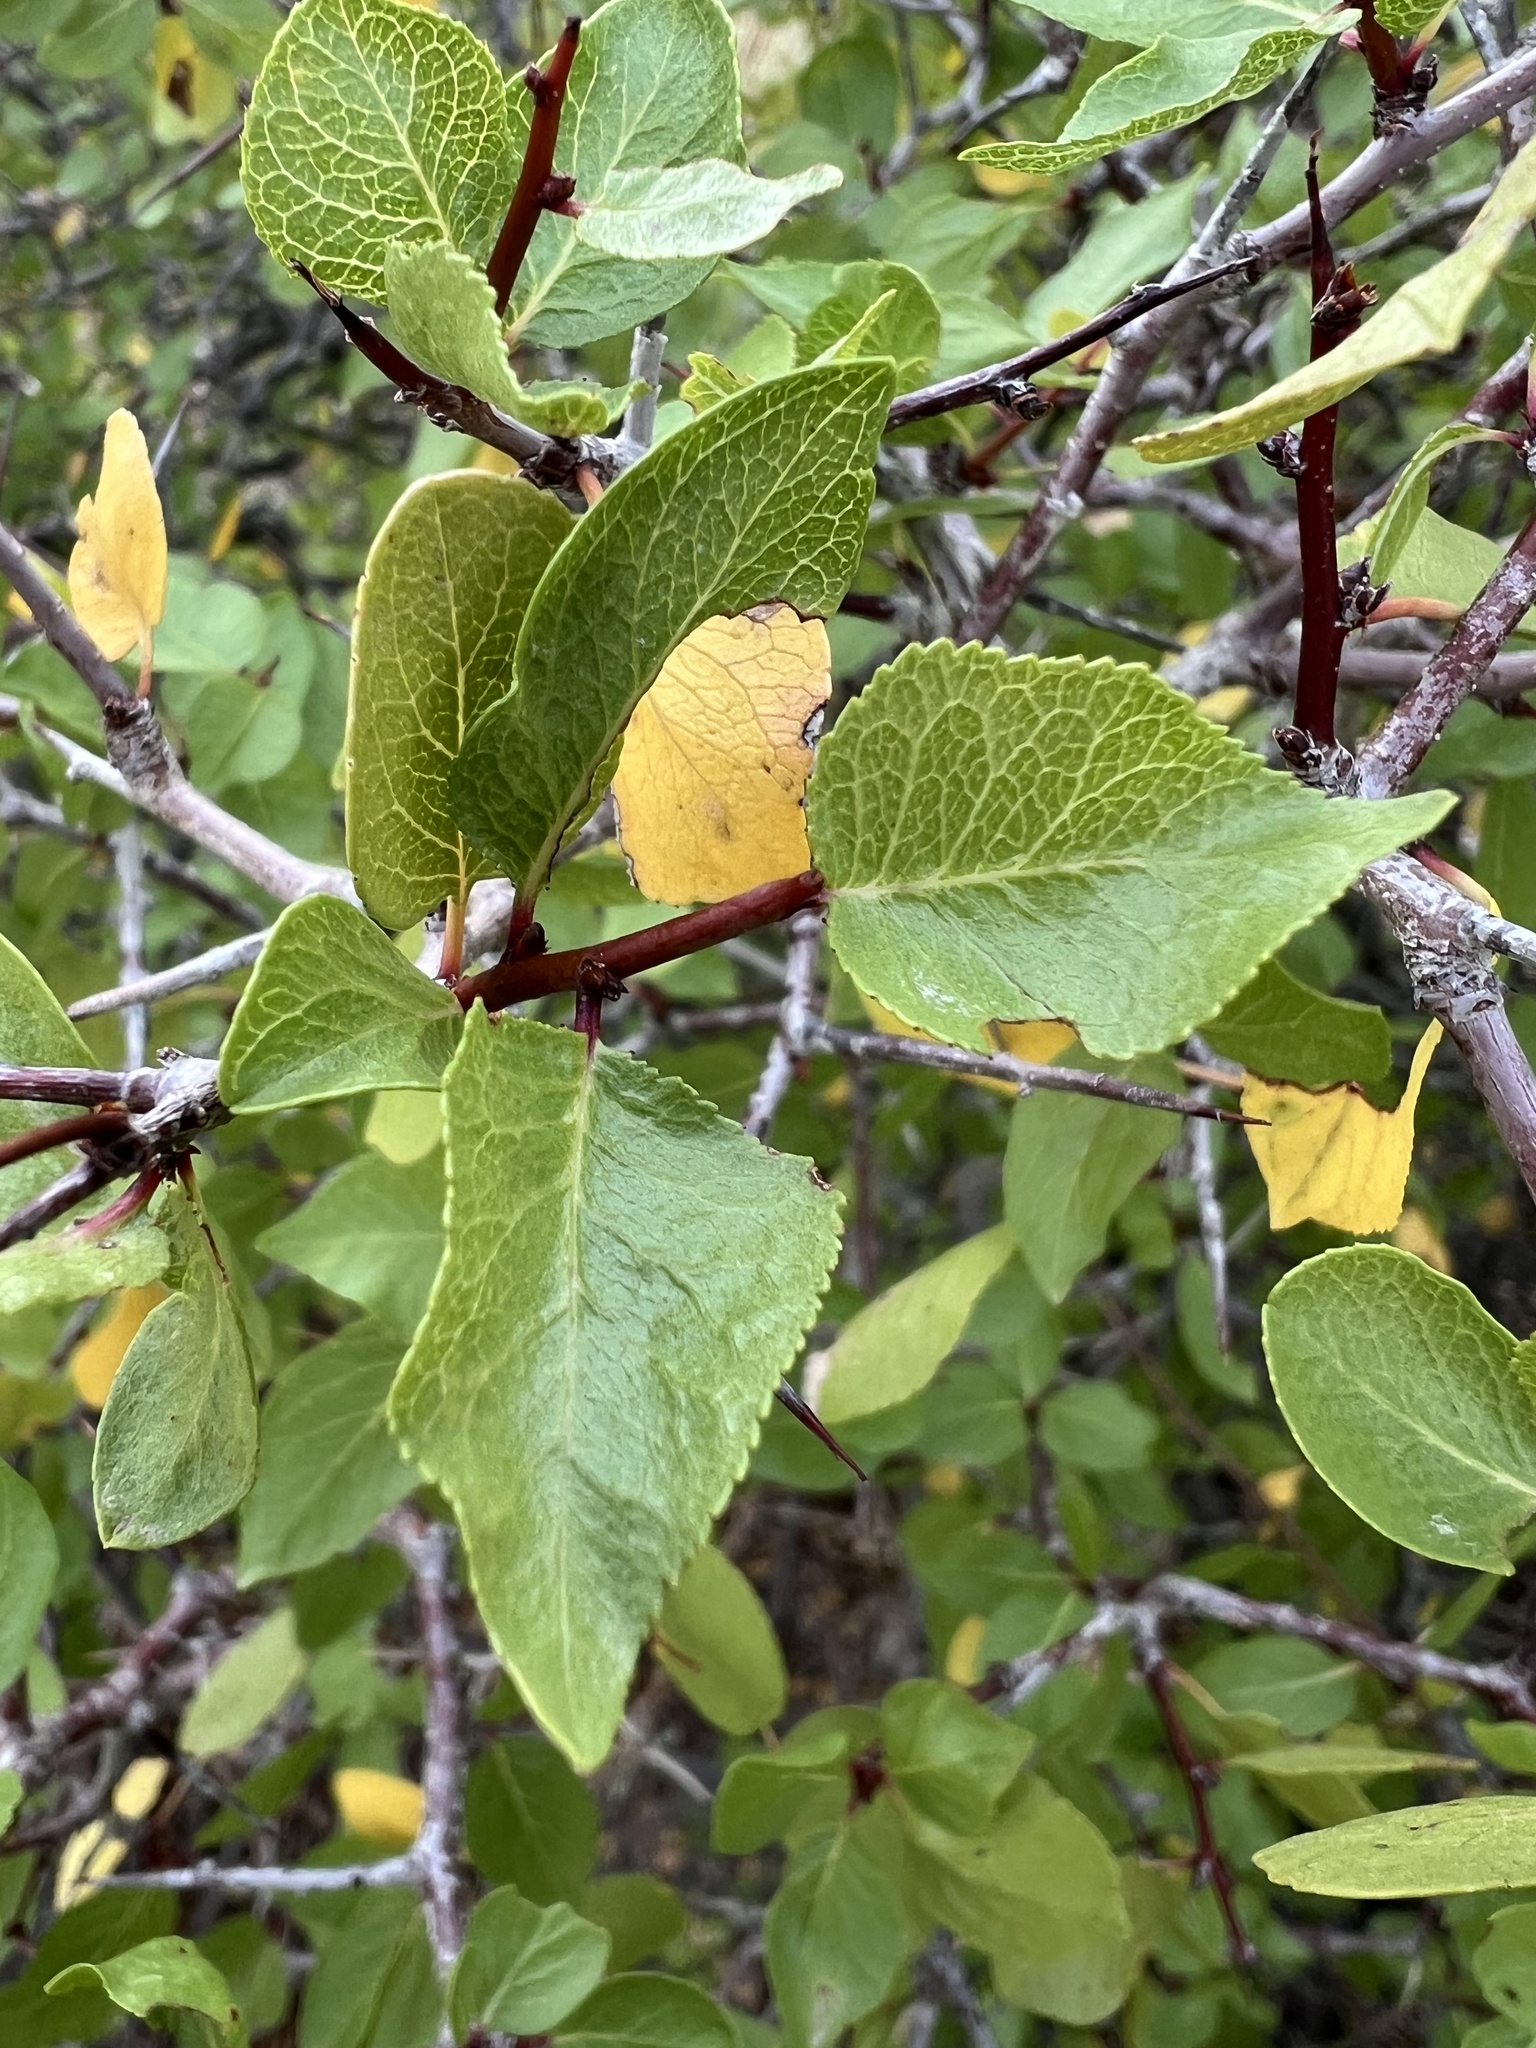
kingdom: Plantae
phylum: Tracheophyta
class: Magnoliopsida
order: Rosales
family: Rosaceae
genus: Prunus
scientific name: Prunus fremontii
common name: Desert apricot
